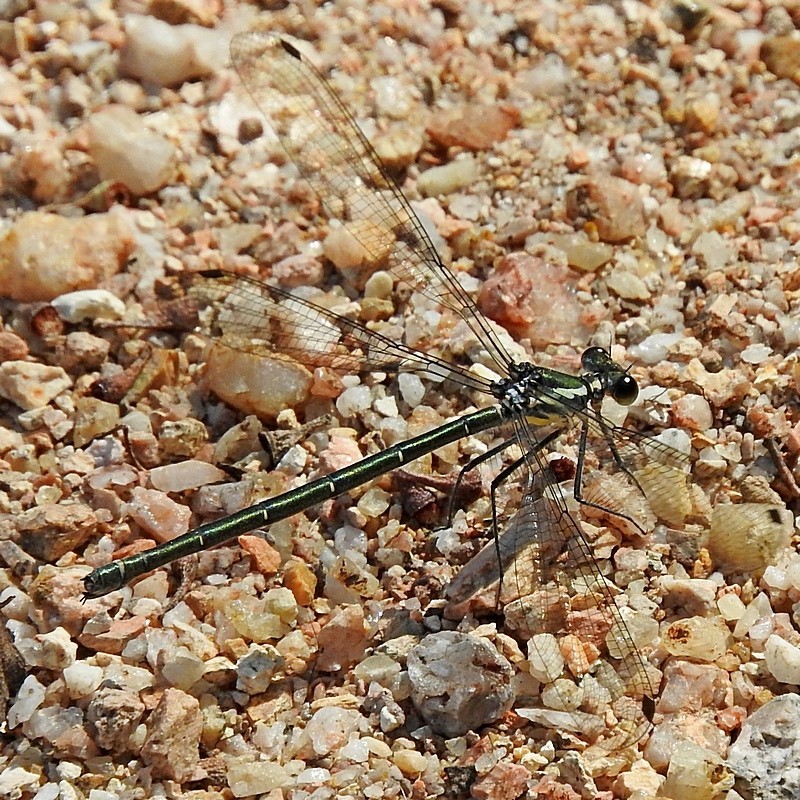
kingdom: Animalia
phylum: Arthropoda
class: Insecta
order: Odonata
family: Argiolestidae
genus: Austroargiolestes
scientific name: Austroargiolestes icteromelas
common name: Common flatwing
